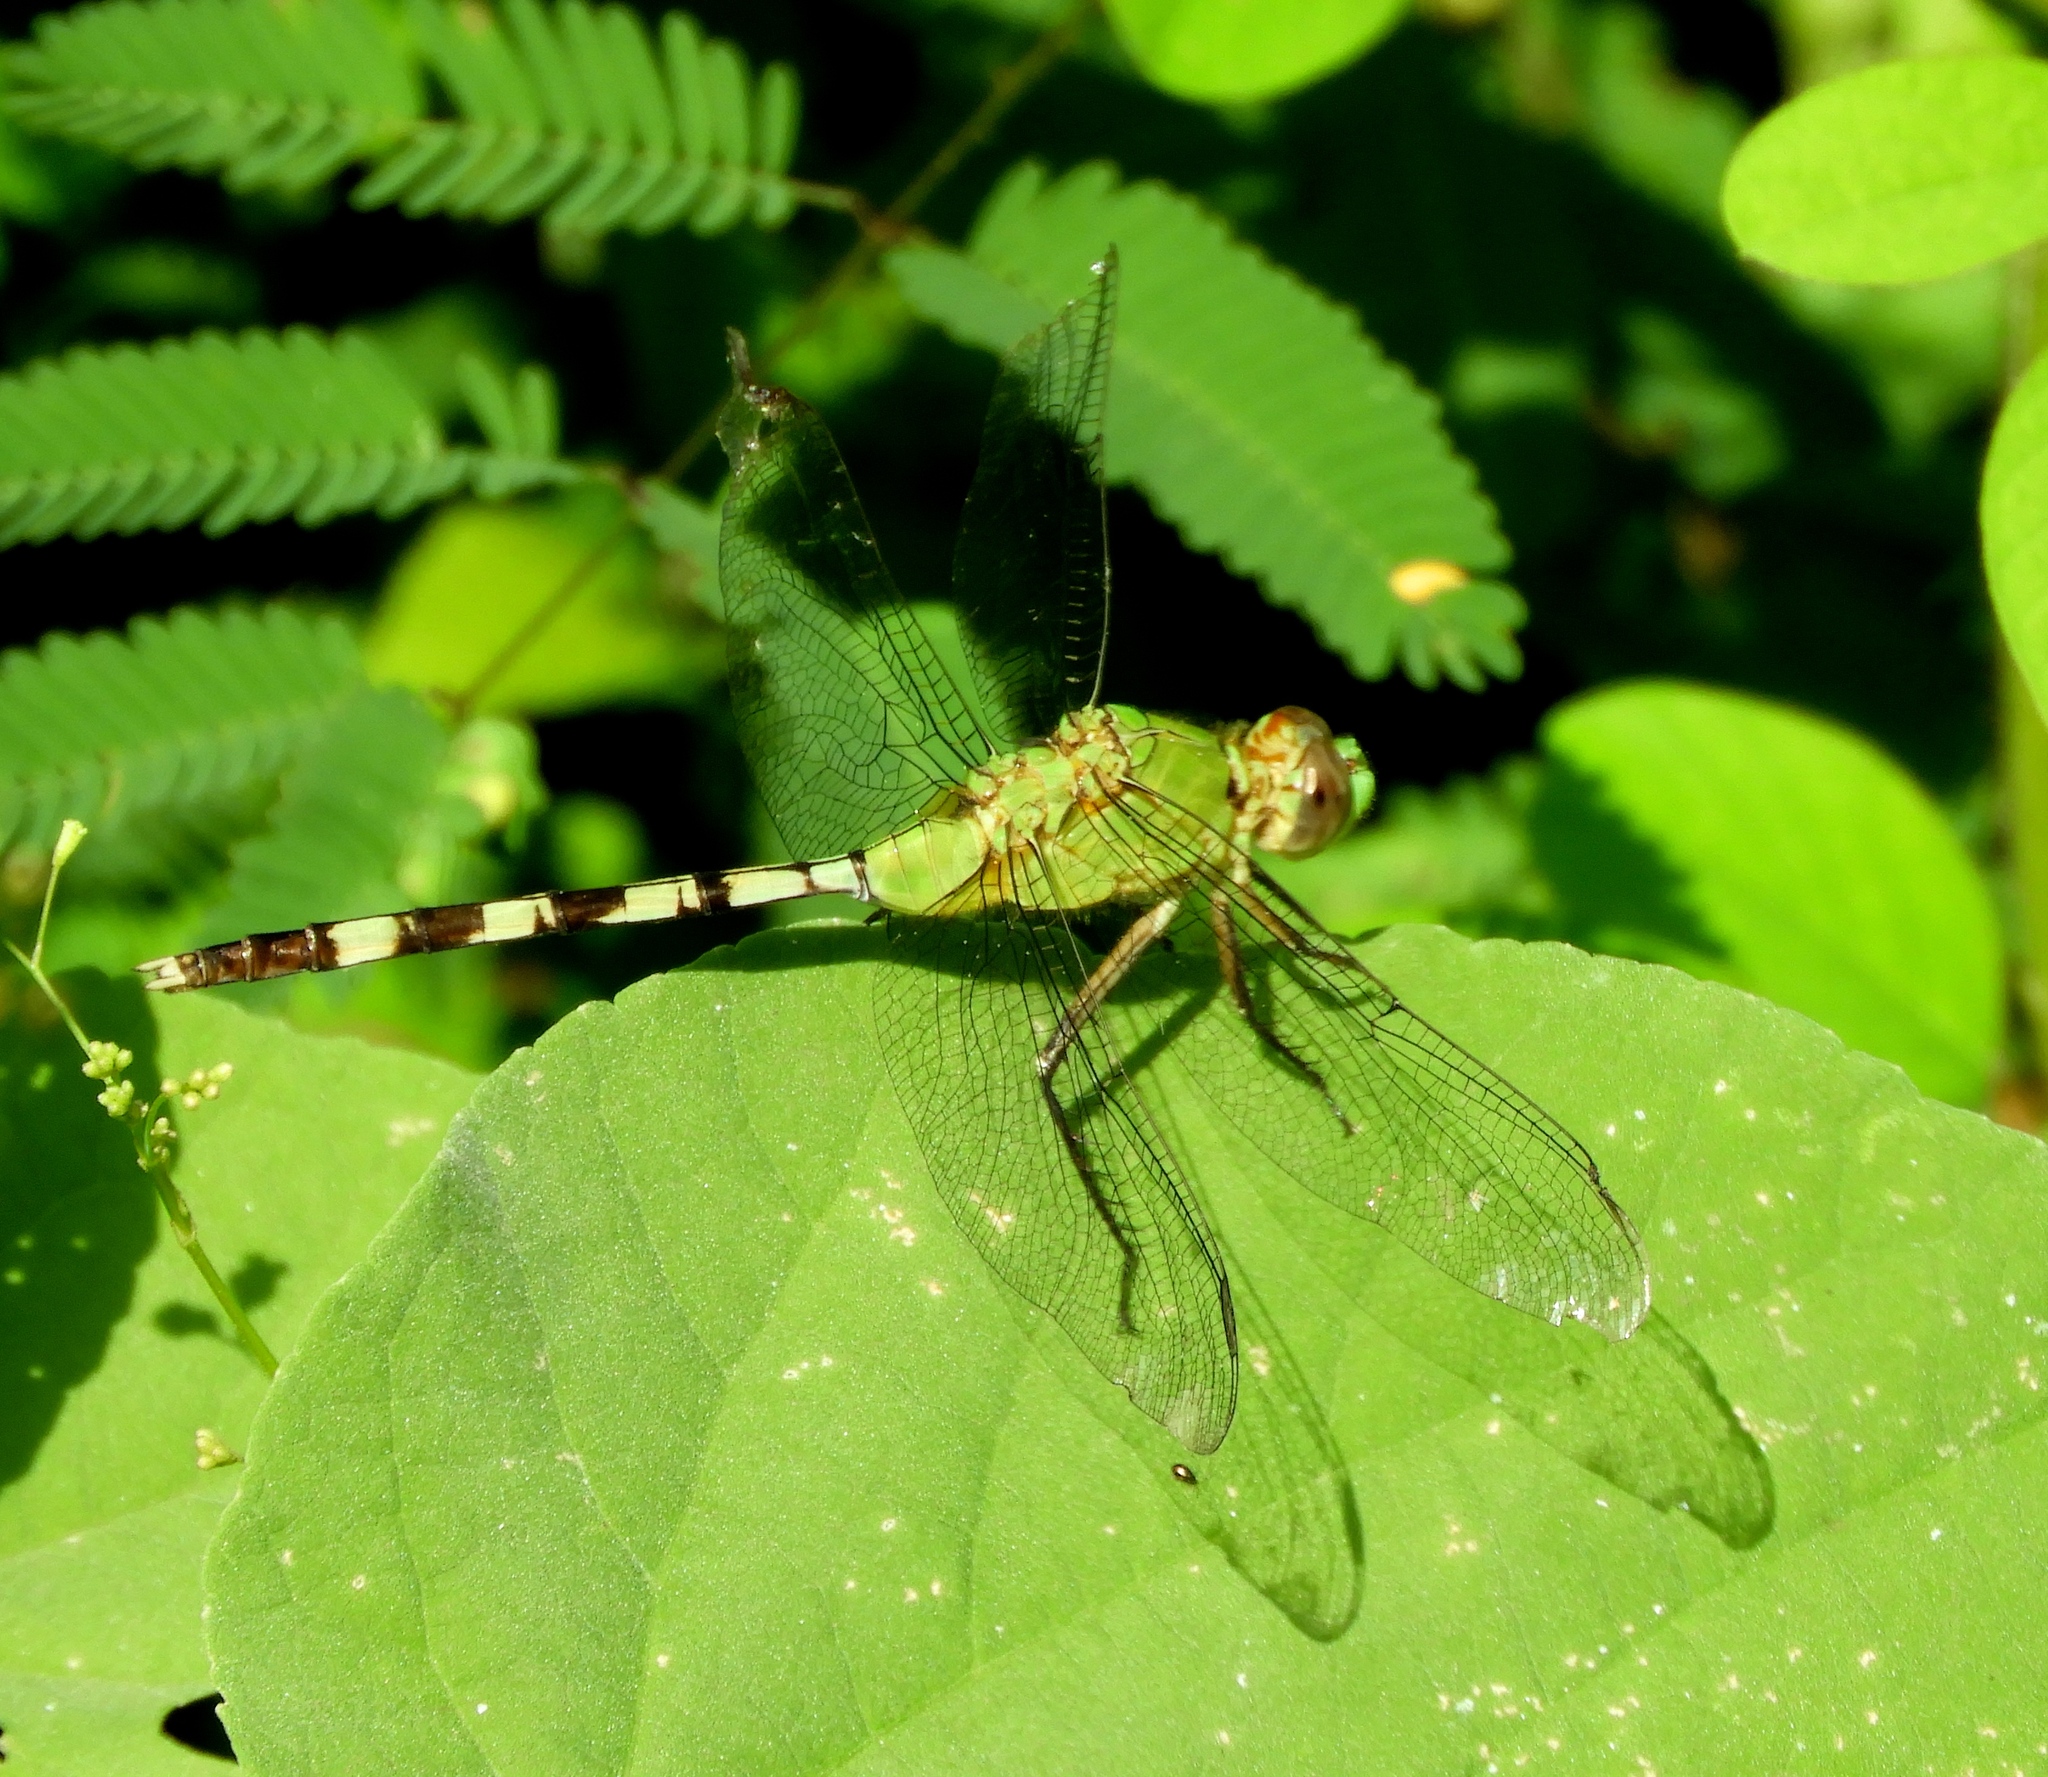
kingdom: Animalia
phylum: Arthropoda
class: Insecta
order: Odonata
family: Libellulidae
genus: Erythemis
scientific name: Erythemis vesiculosa
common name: Great pondhawk
